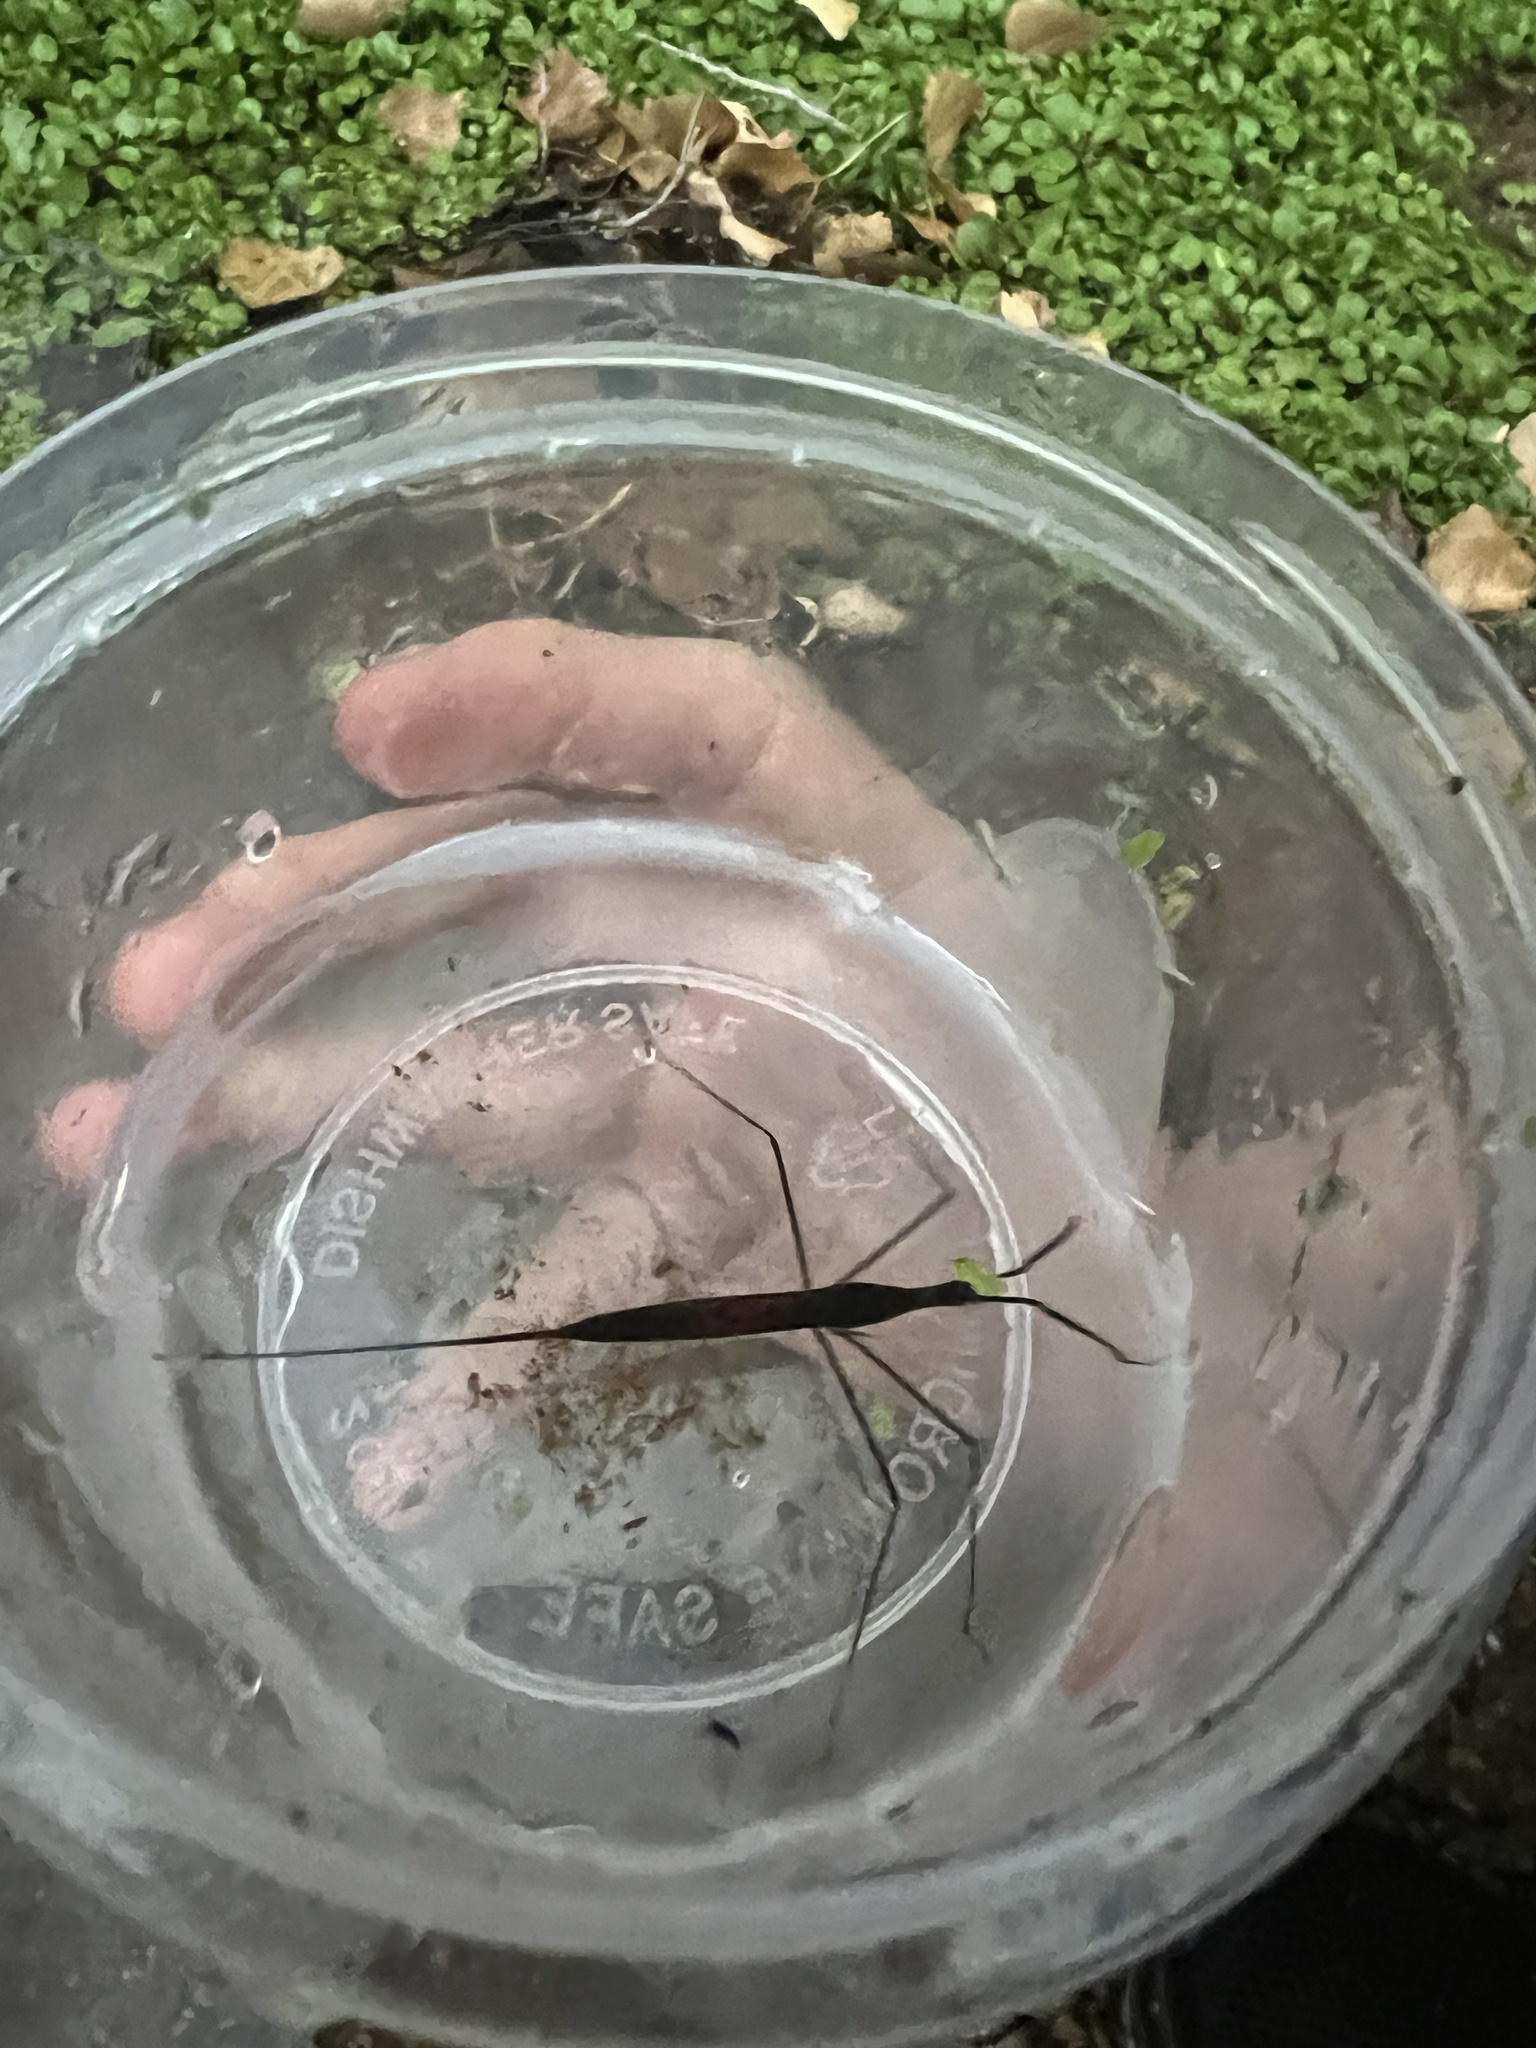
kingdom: Animalia
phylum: Arthropoda
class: Insecta
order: Hemiptera
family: Nepidae
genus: Ranatra
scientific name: Ranatra quadridentata
